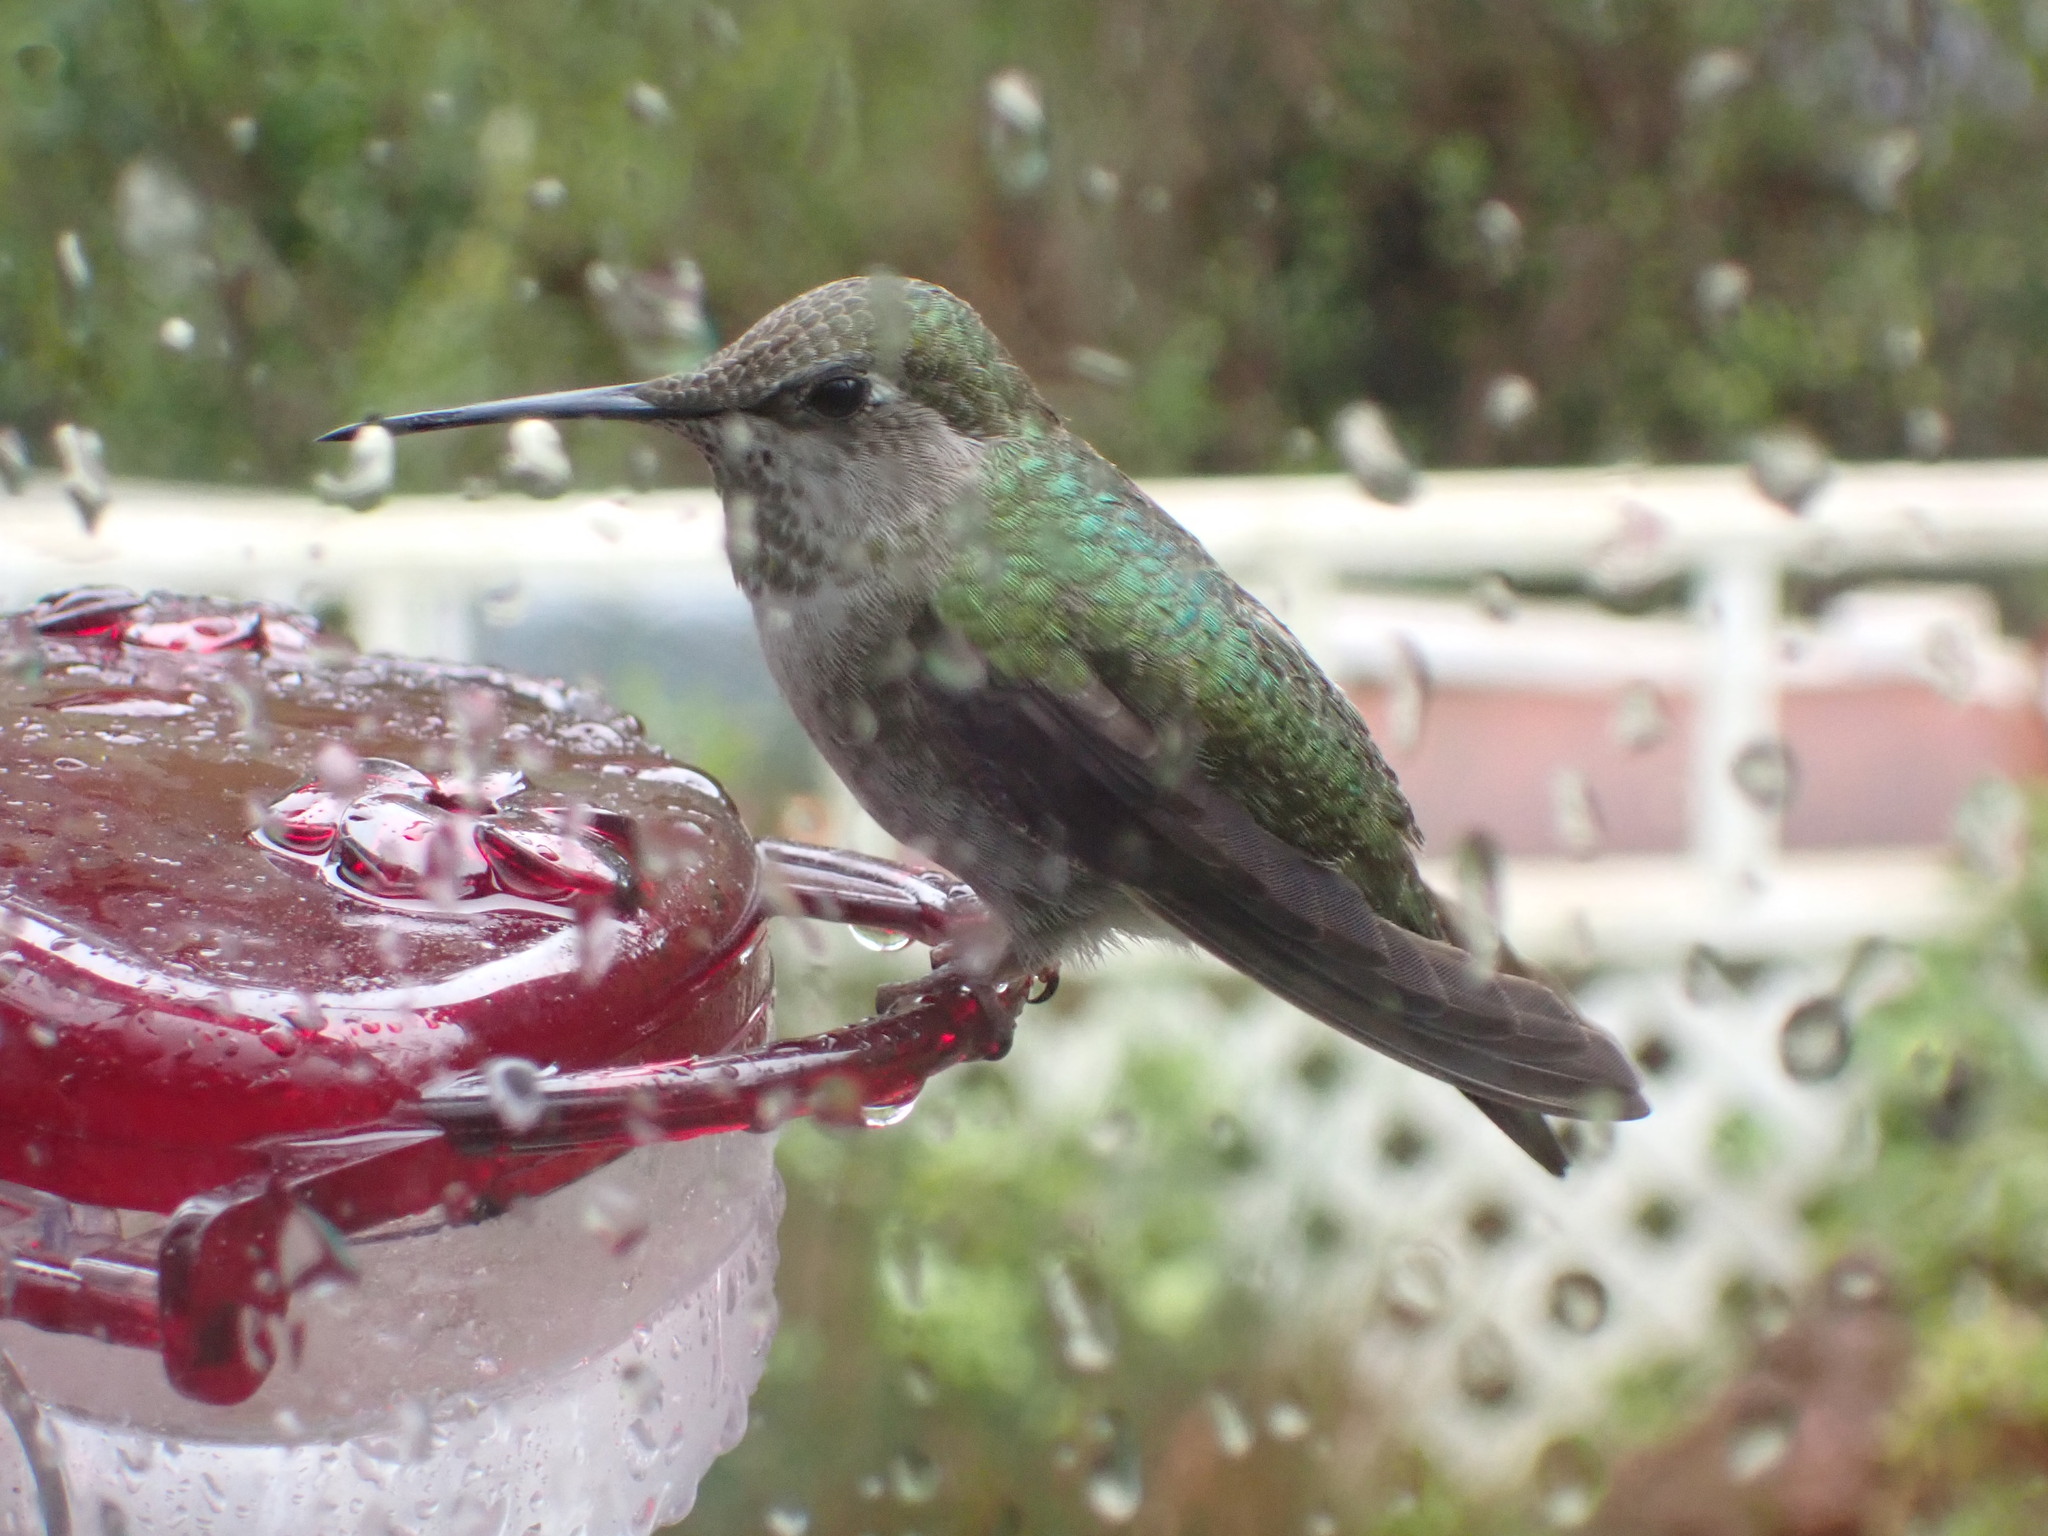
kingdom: Animalia
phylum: Chordata
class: Aves
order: Apodiformes
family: Trochilidae
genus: Calypte
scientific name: Calypte anna
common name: Anna's hummingbird
